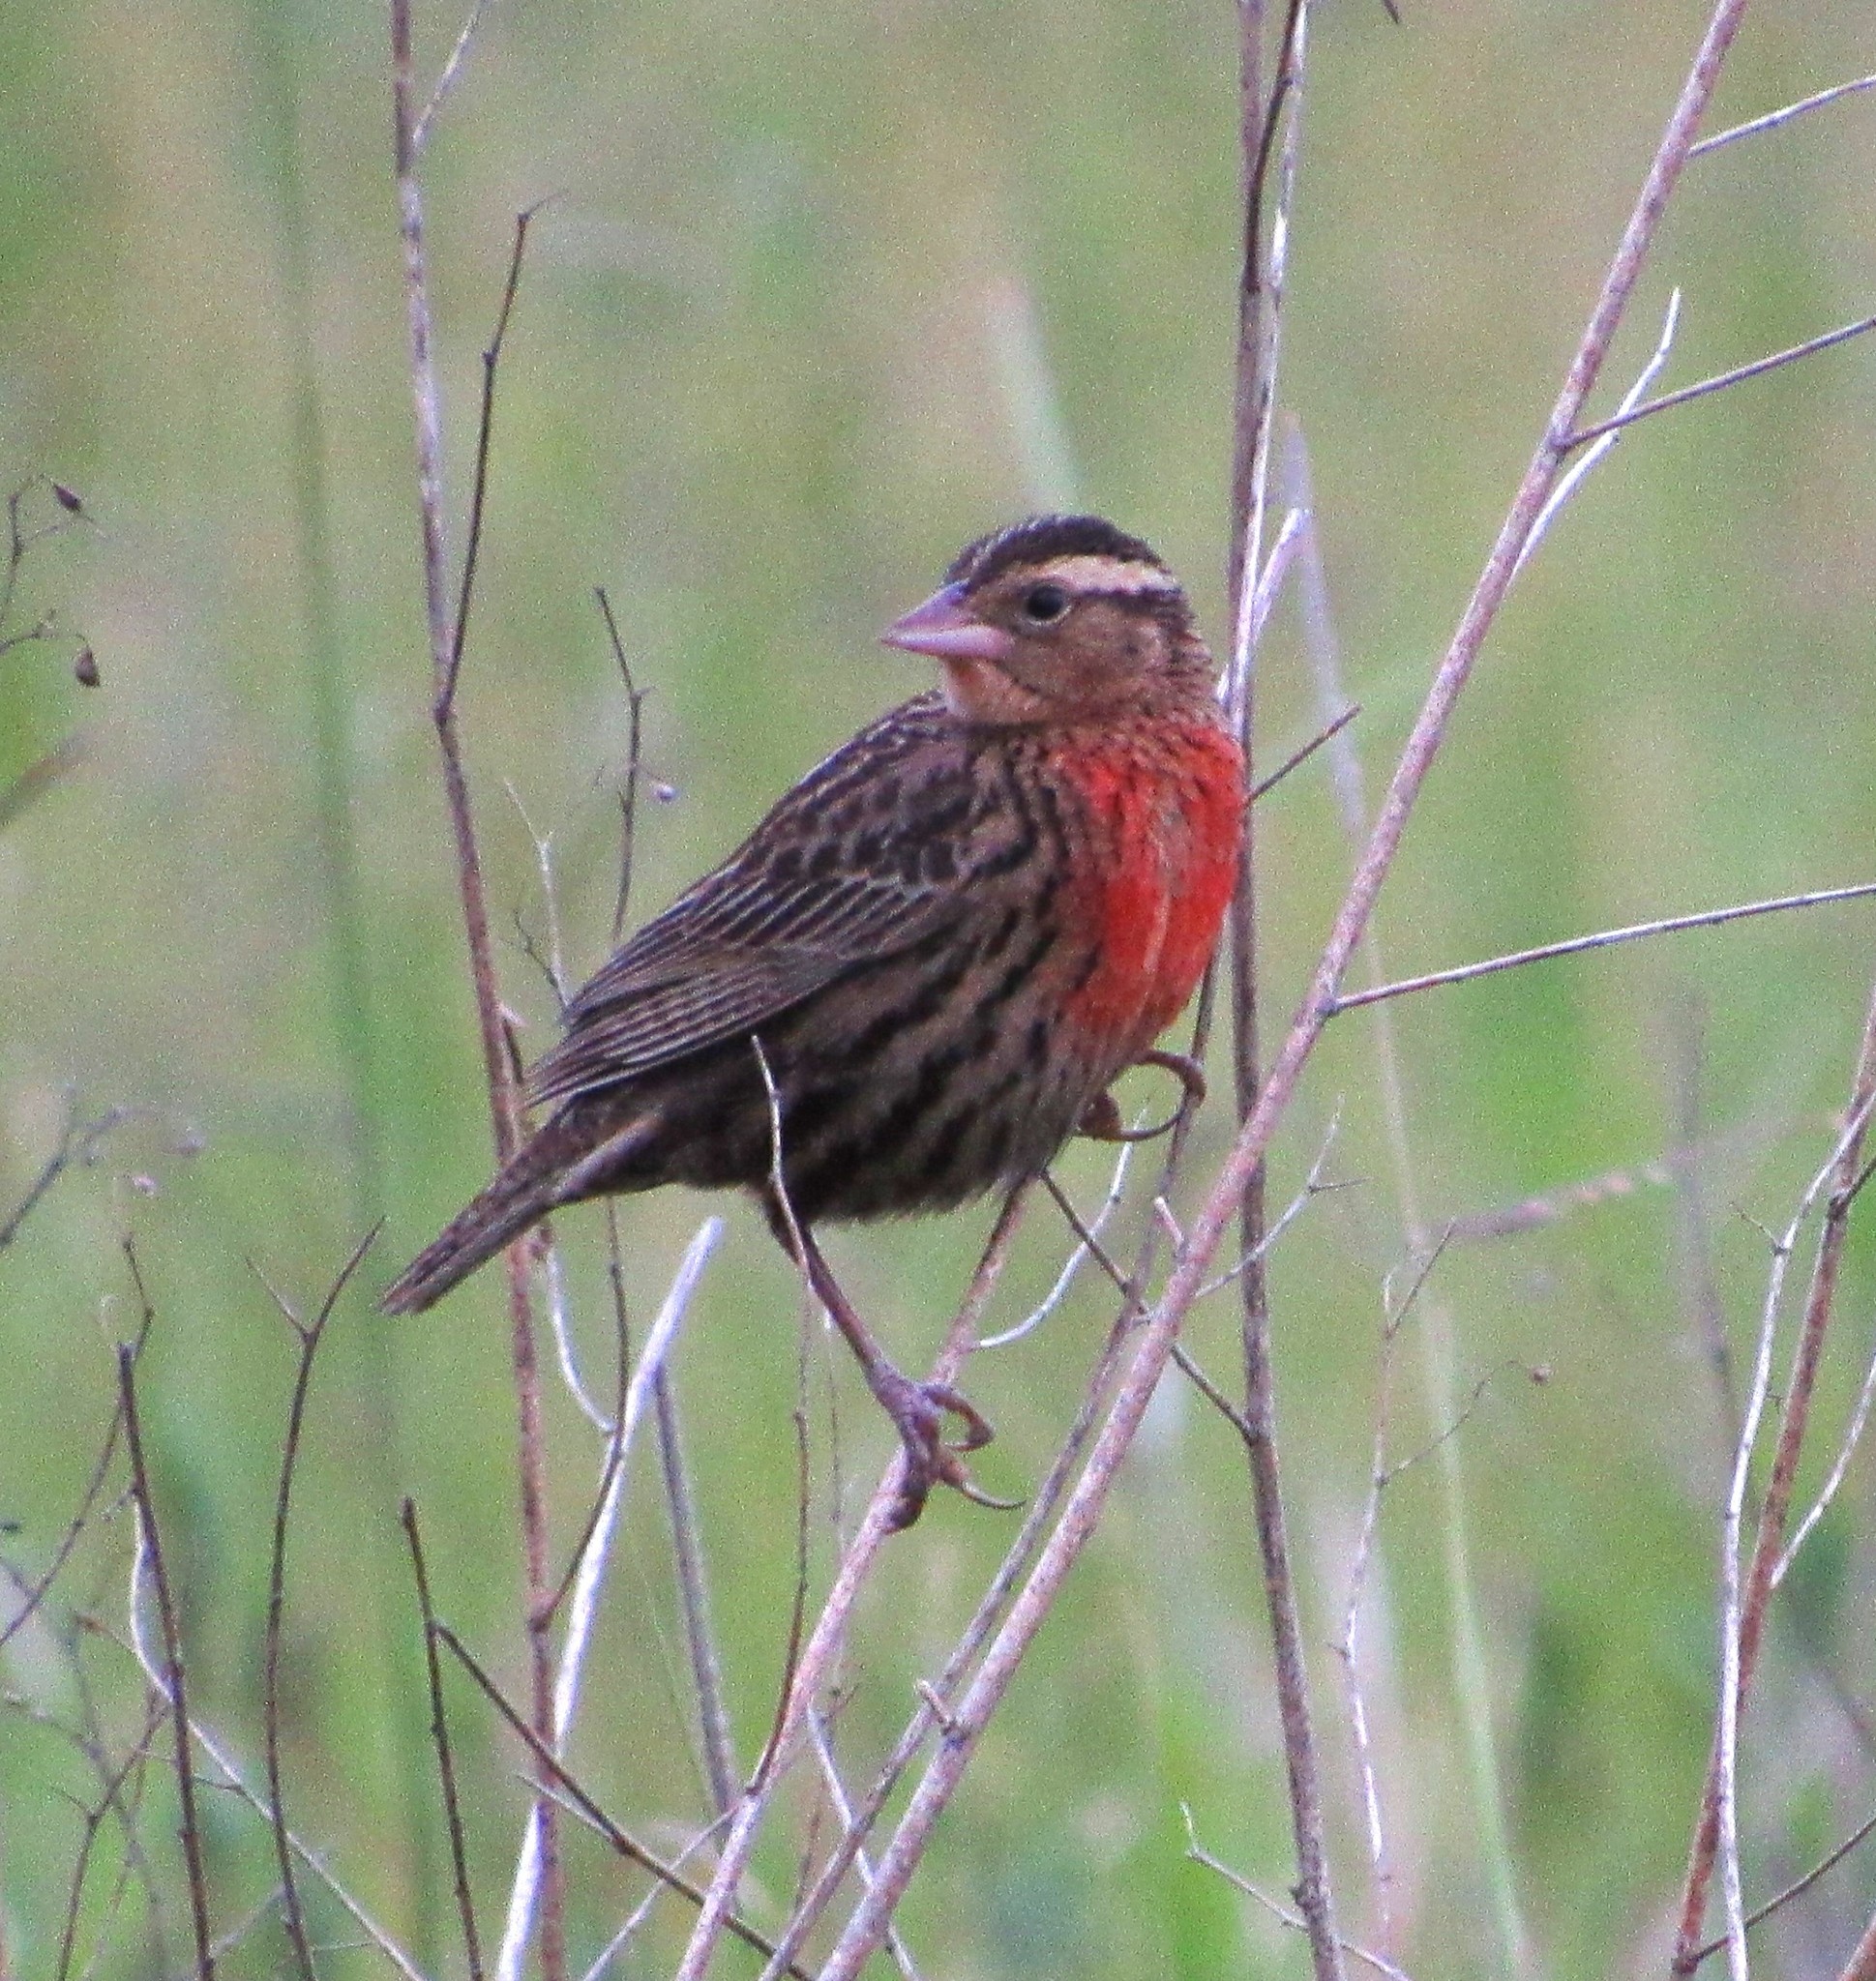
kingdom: Animalia
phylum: Chordata
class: Aves
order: Passeriformes
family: Icteridae
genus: Sturnella
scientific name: Sturnella superciliaris
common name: White-browed blackbird
